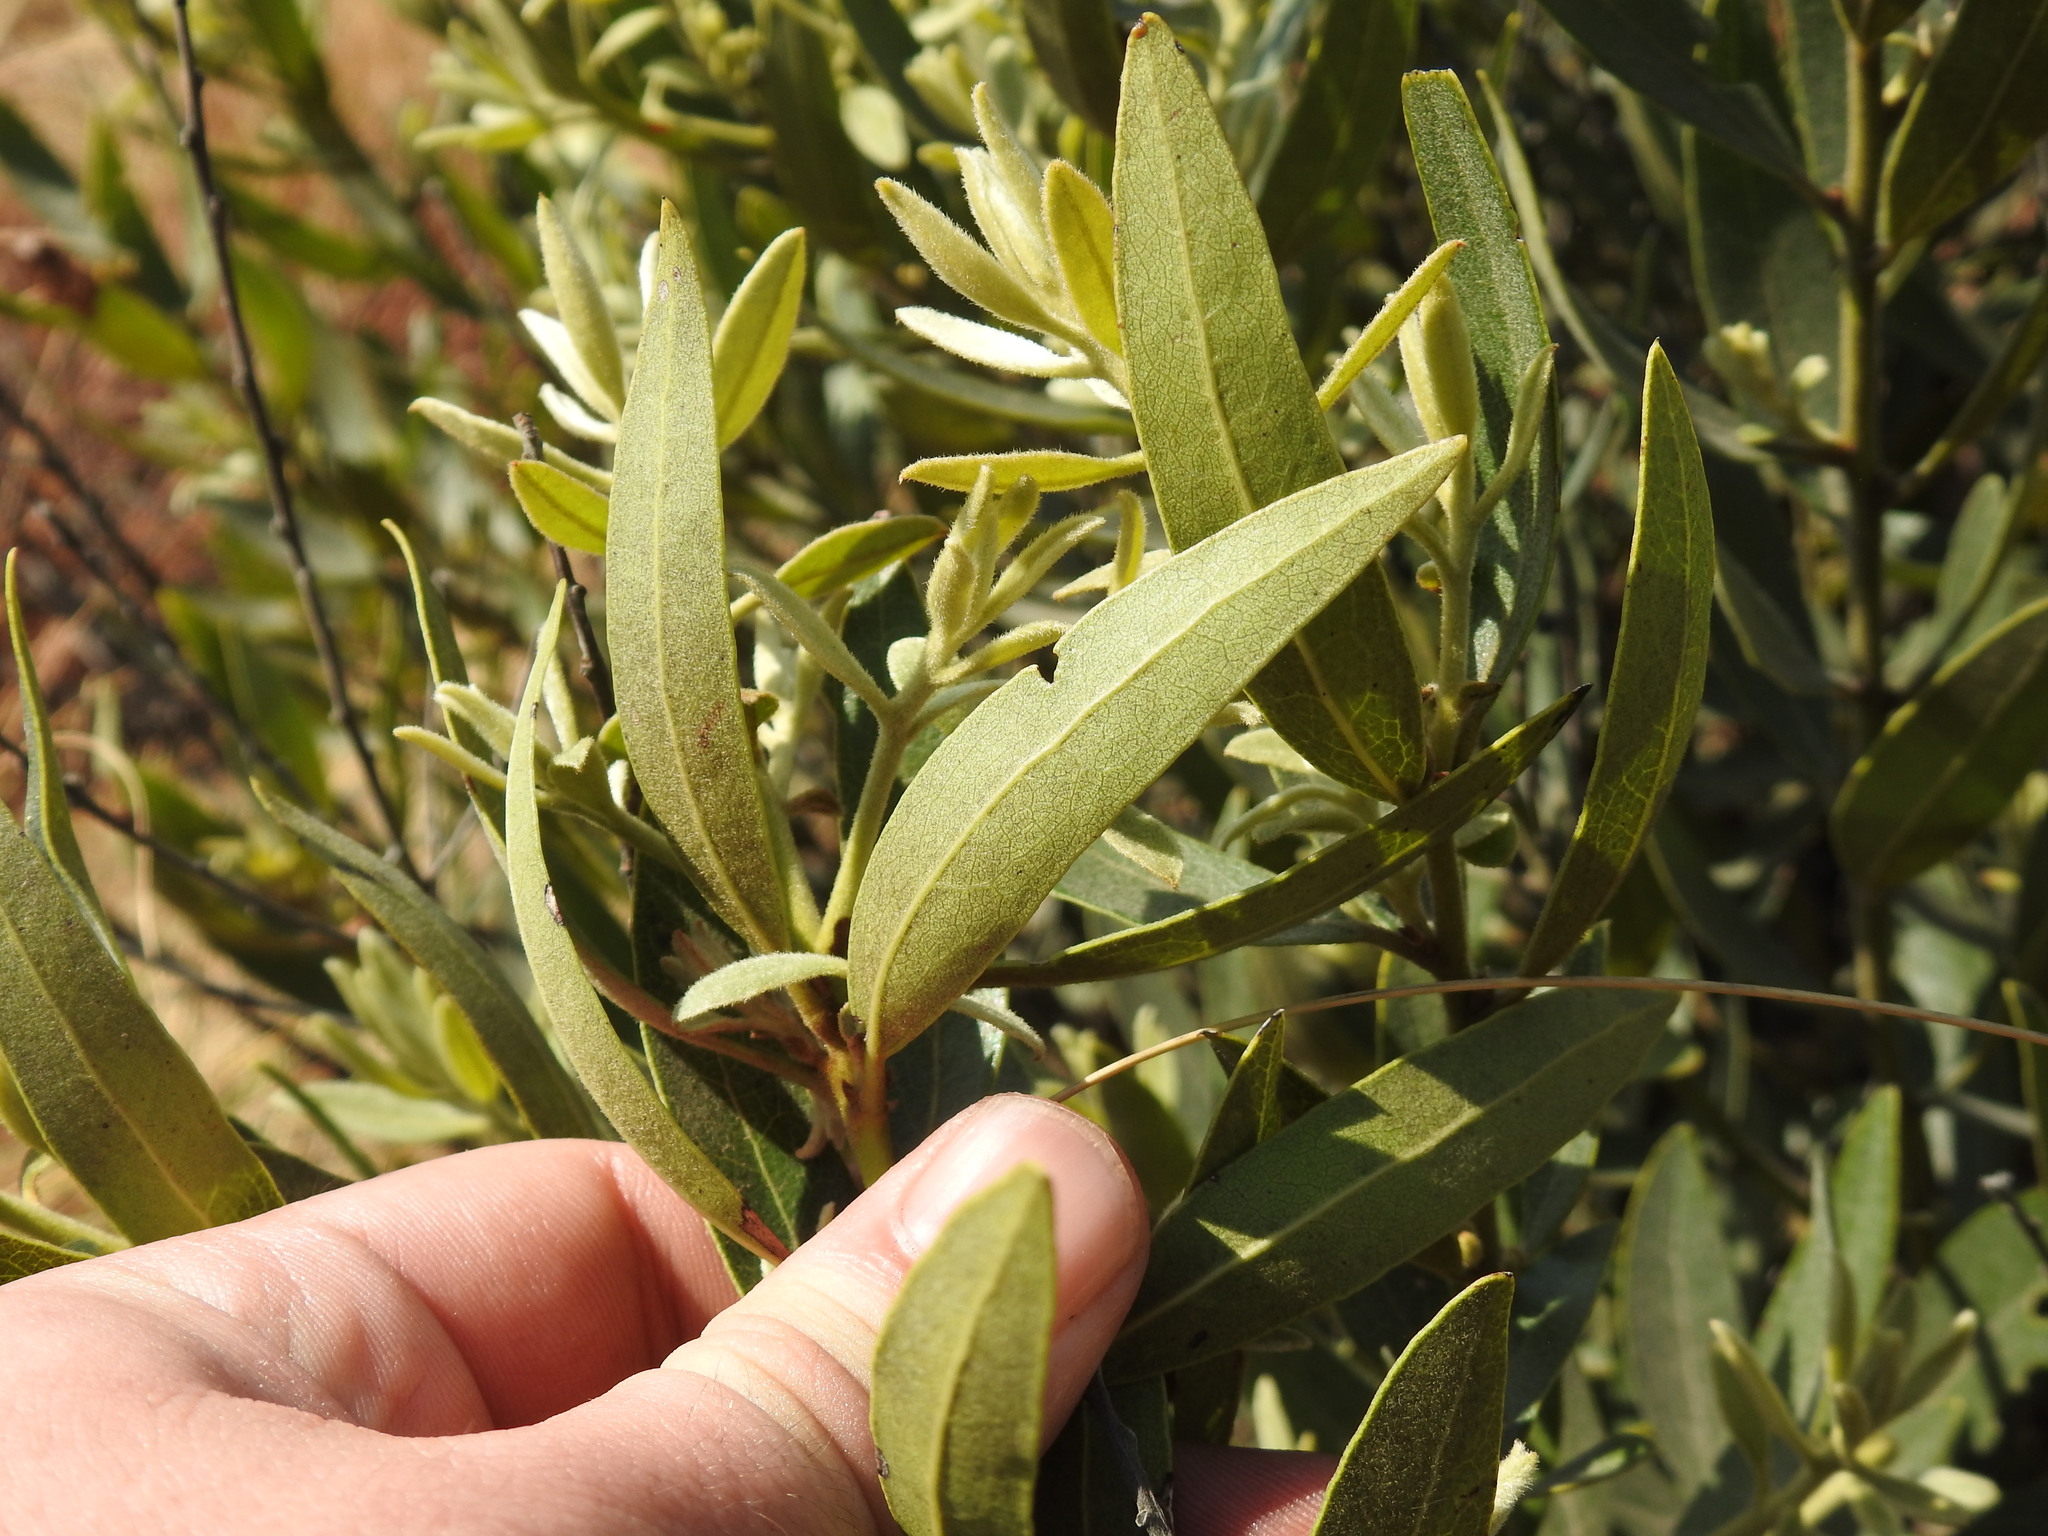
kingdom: Plantae
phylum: Tracheophyta
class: Magnoliopsida
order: Ericales
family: Ebenaceae
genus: Euclea
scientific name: Euclea natalensis
